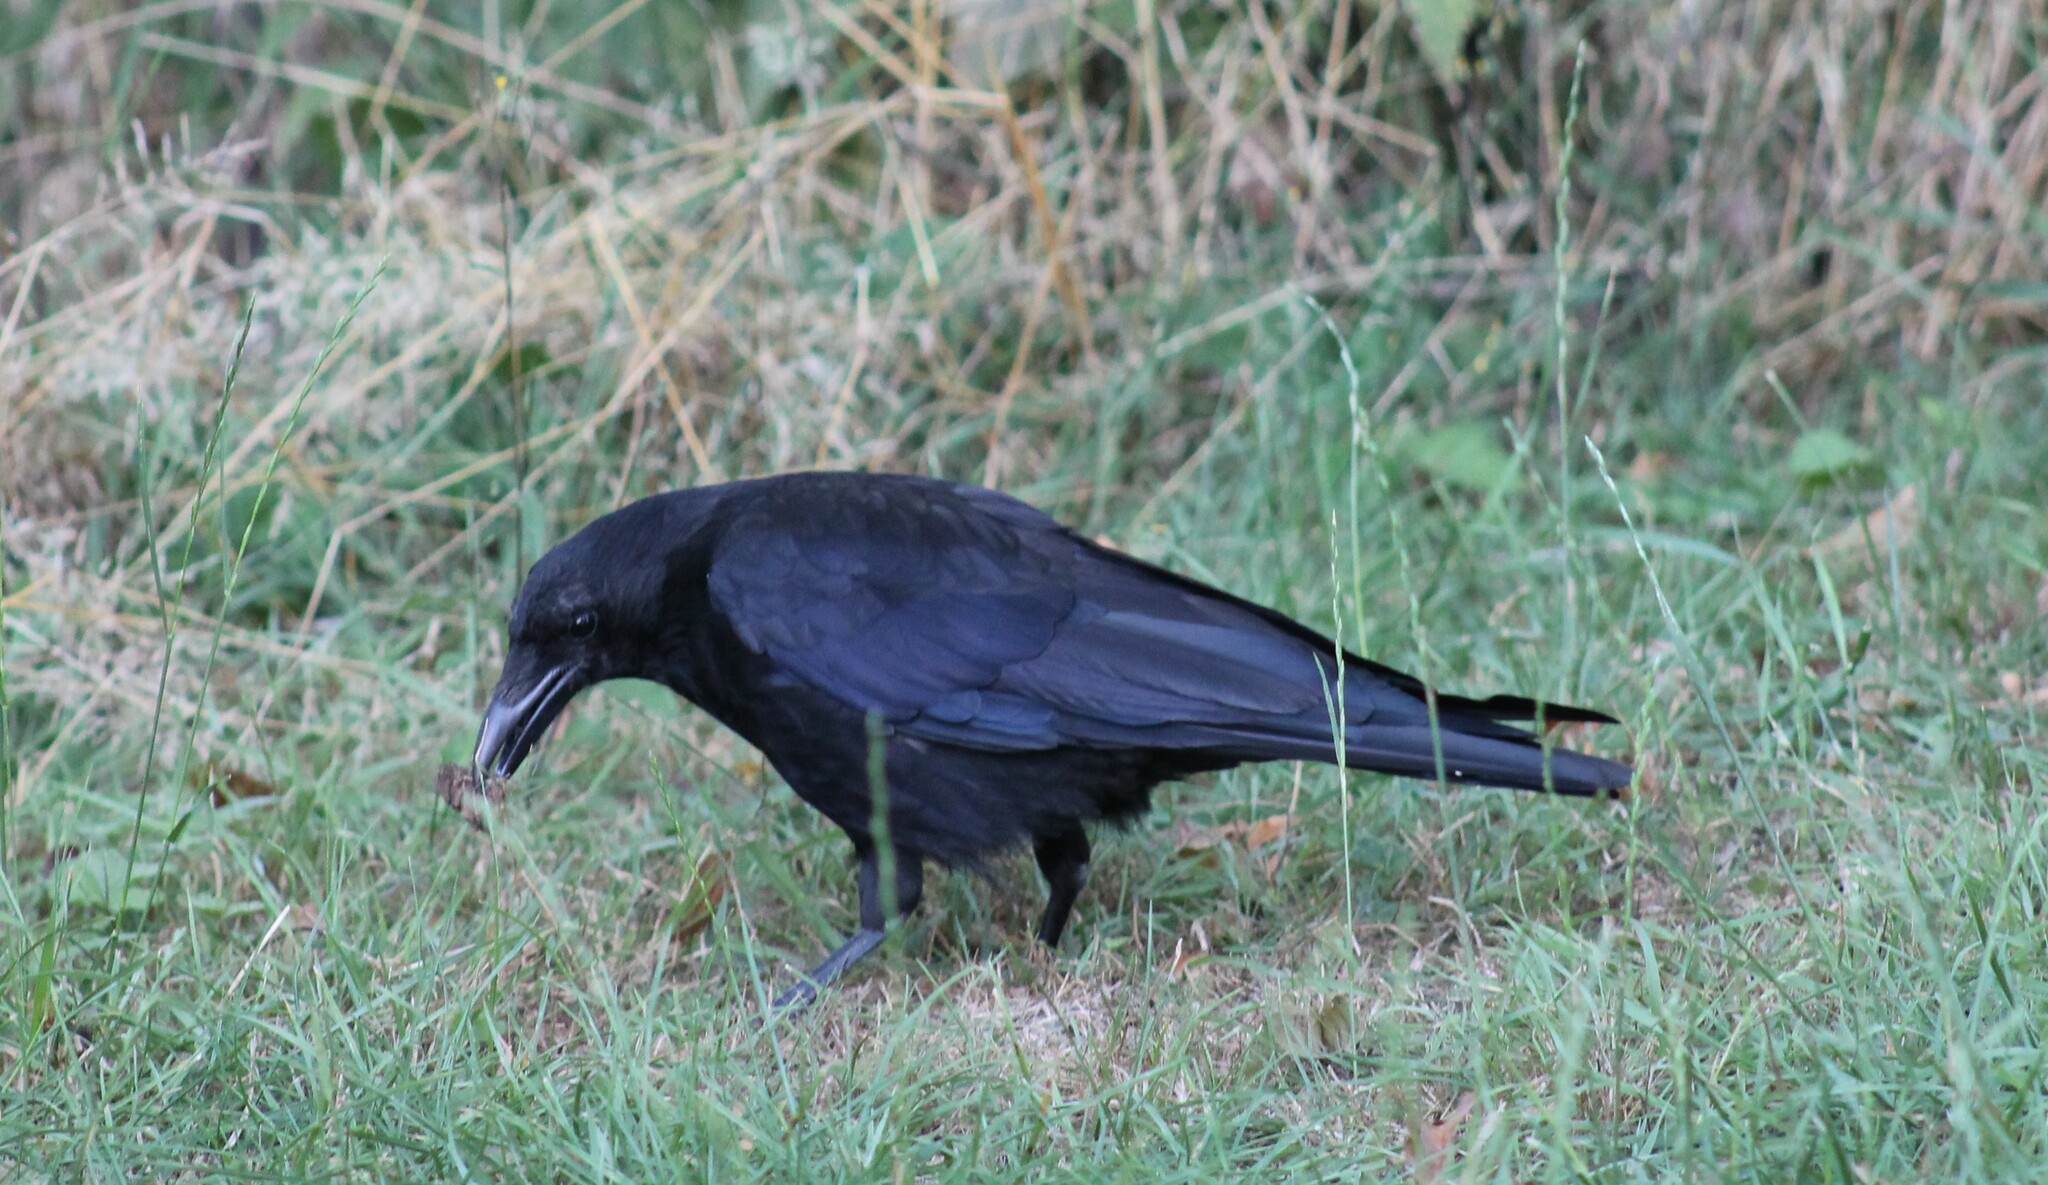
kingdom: Animalia
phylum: Chordata
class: Aves
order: Passeriformes
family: Corvidae
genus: Corvus
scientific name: Corvus corone
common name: Carrion crow
